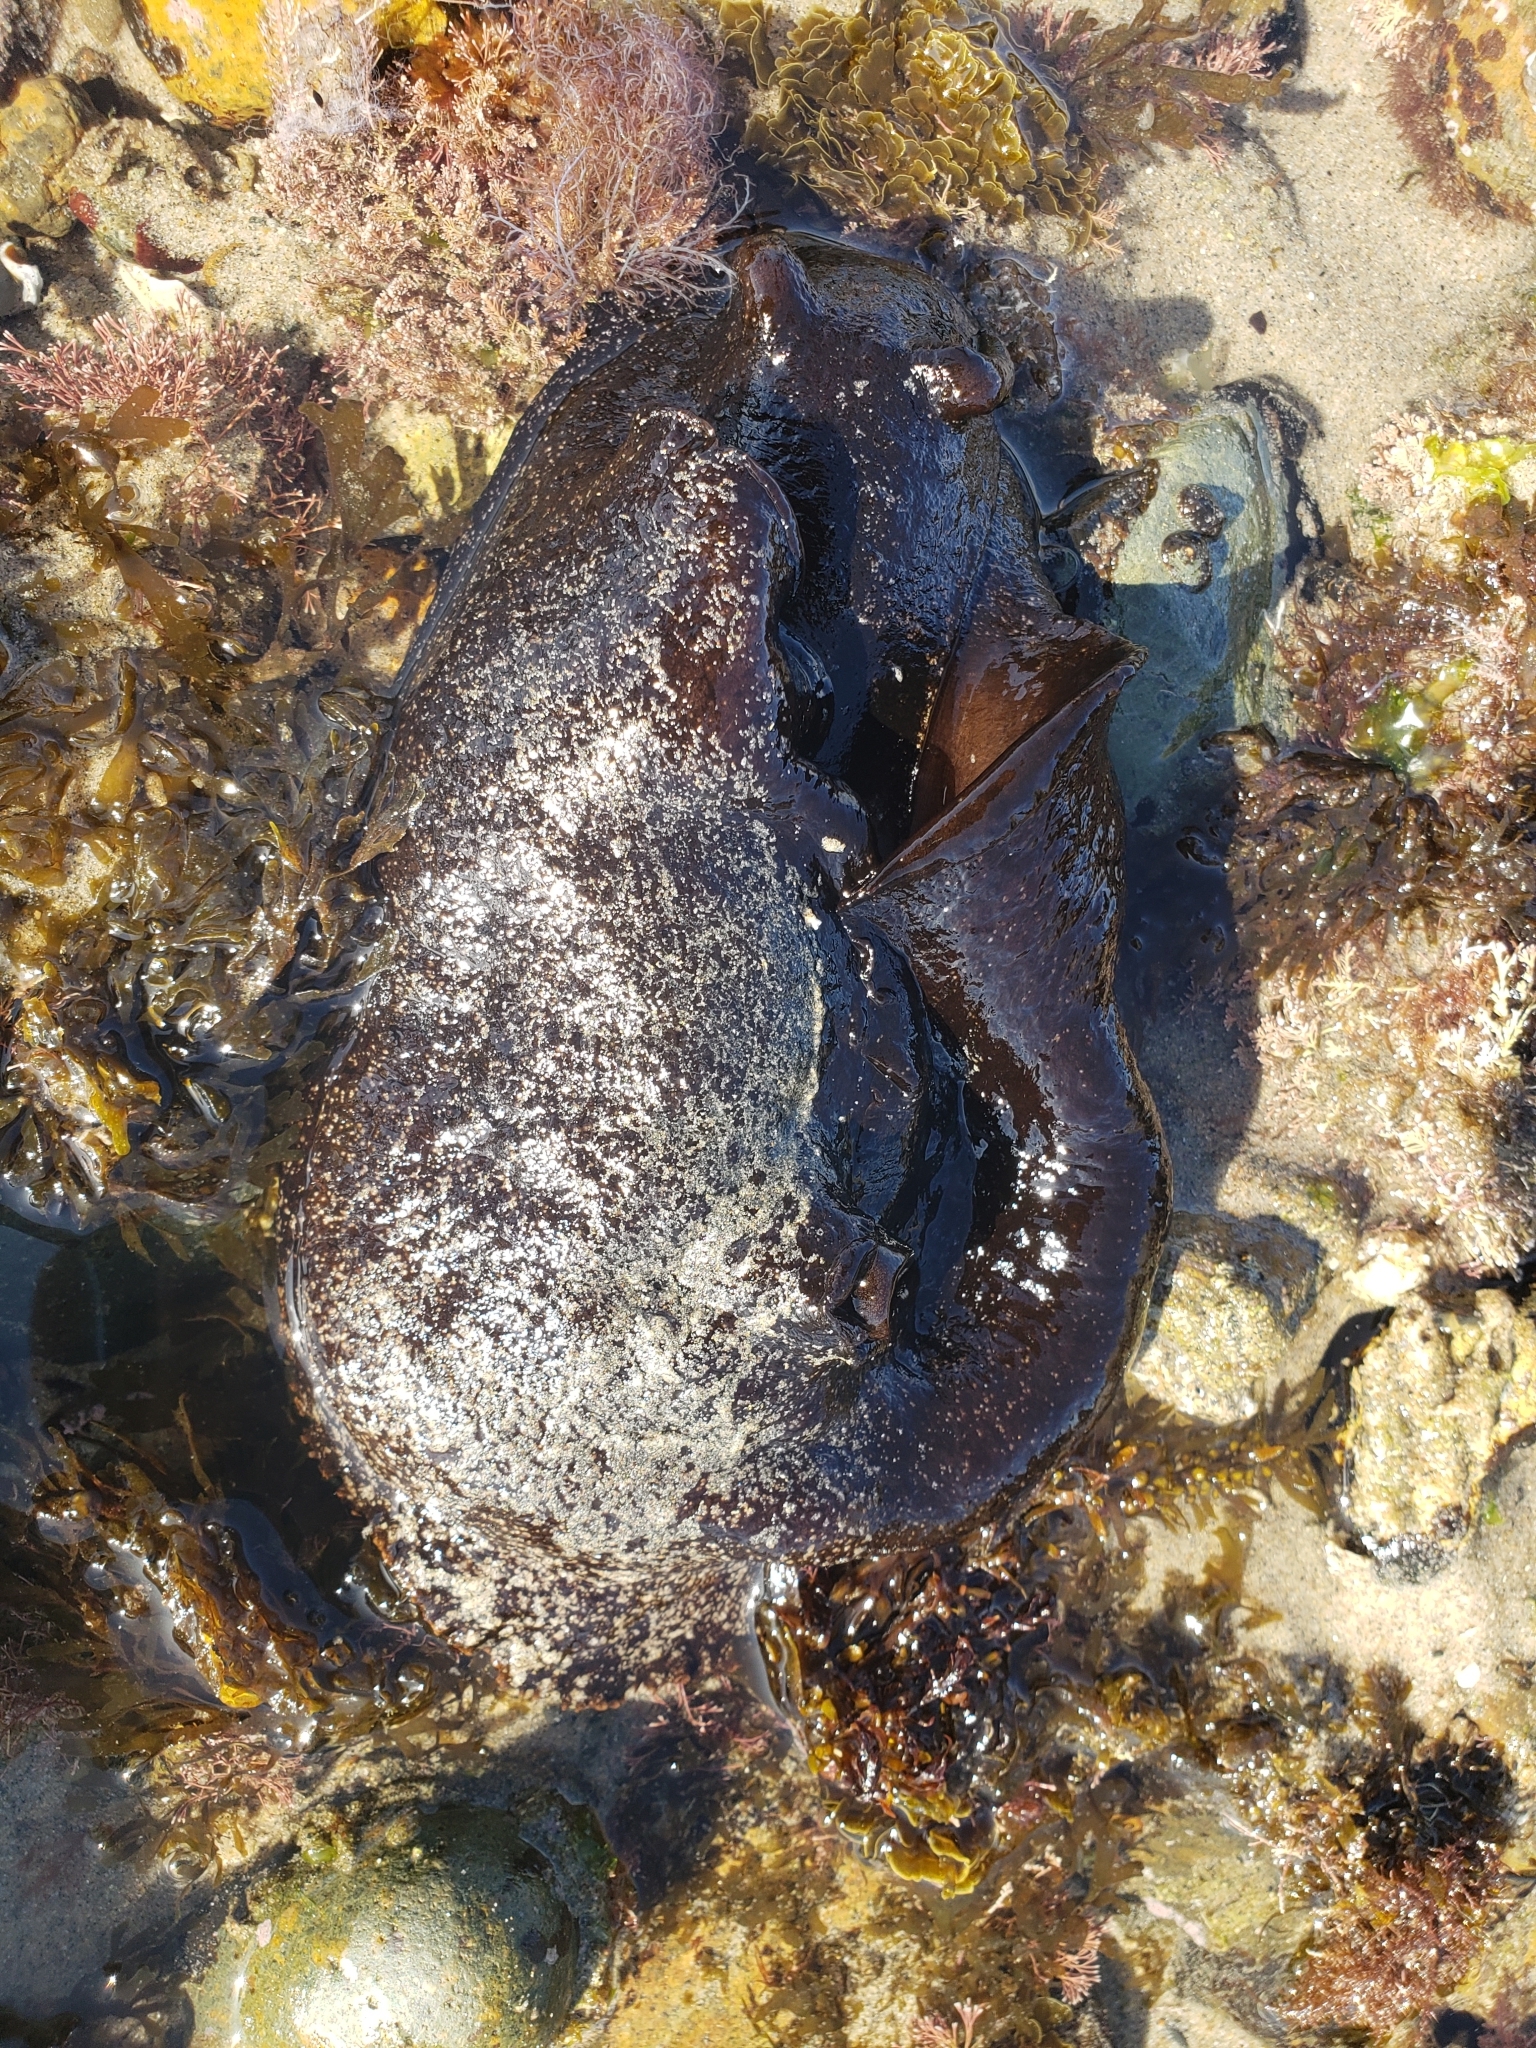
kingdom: Animalia
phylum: Mollusca
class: Gastropoda
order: Aplysiida
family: Aplysiidae
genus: Aplysia
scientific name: Aplysia vaccaria
